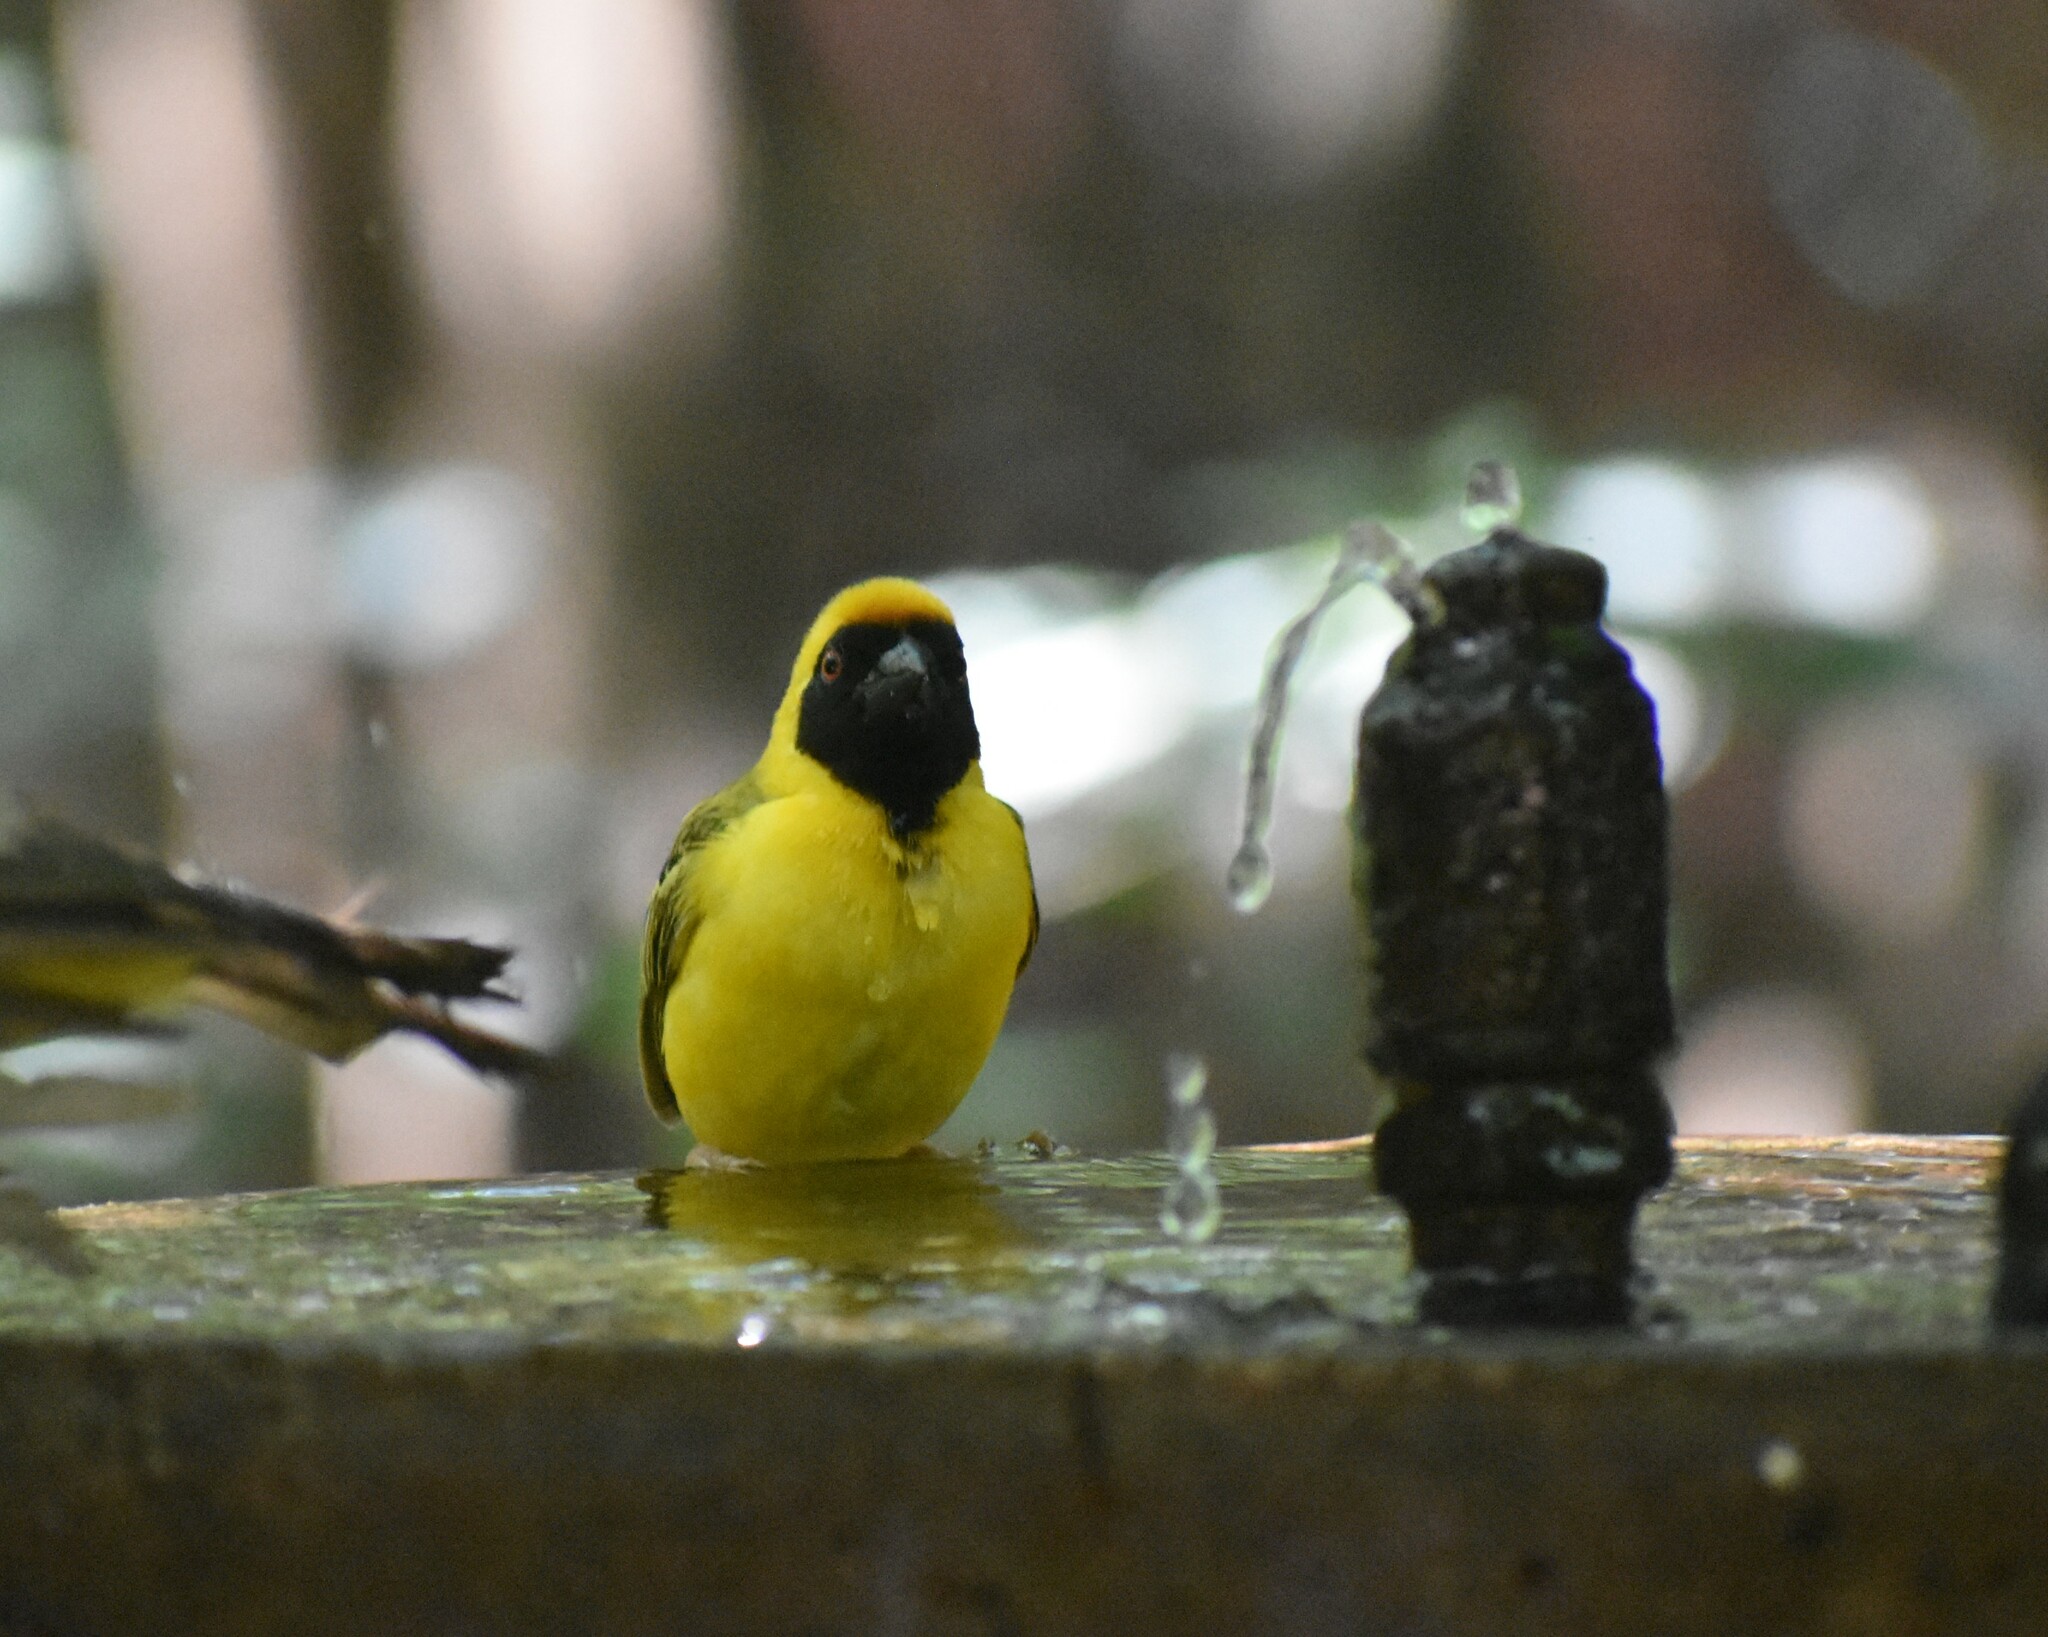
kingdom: Animalia
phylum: Chordata
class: Aves
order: Passeriformes
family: Ploceidae
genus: Ploceus
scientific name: Ploceus velatus
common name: Southern masked weaver
